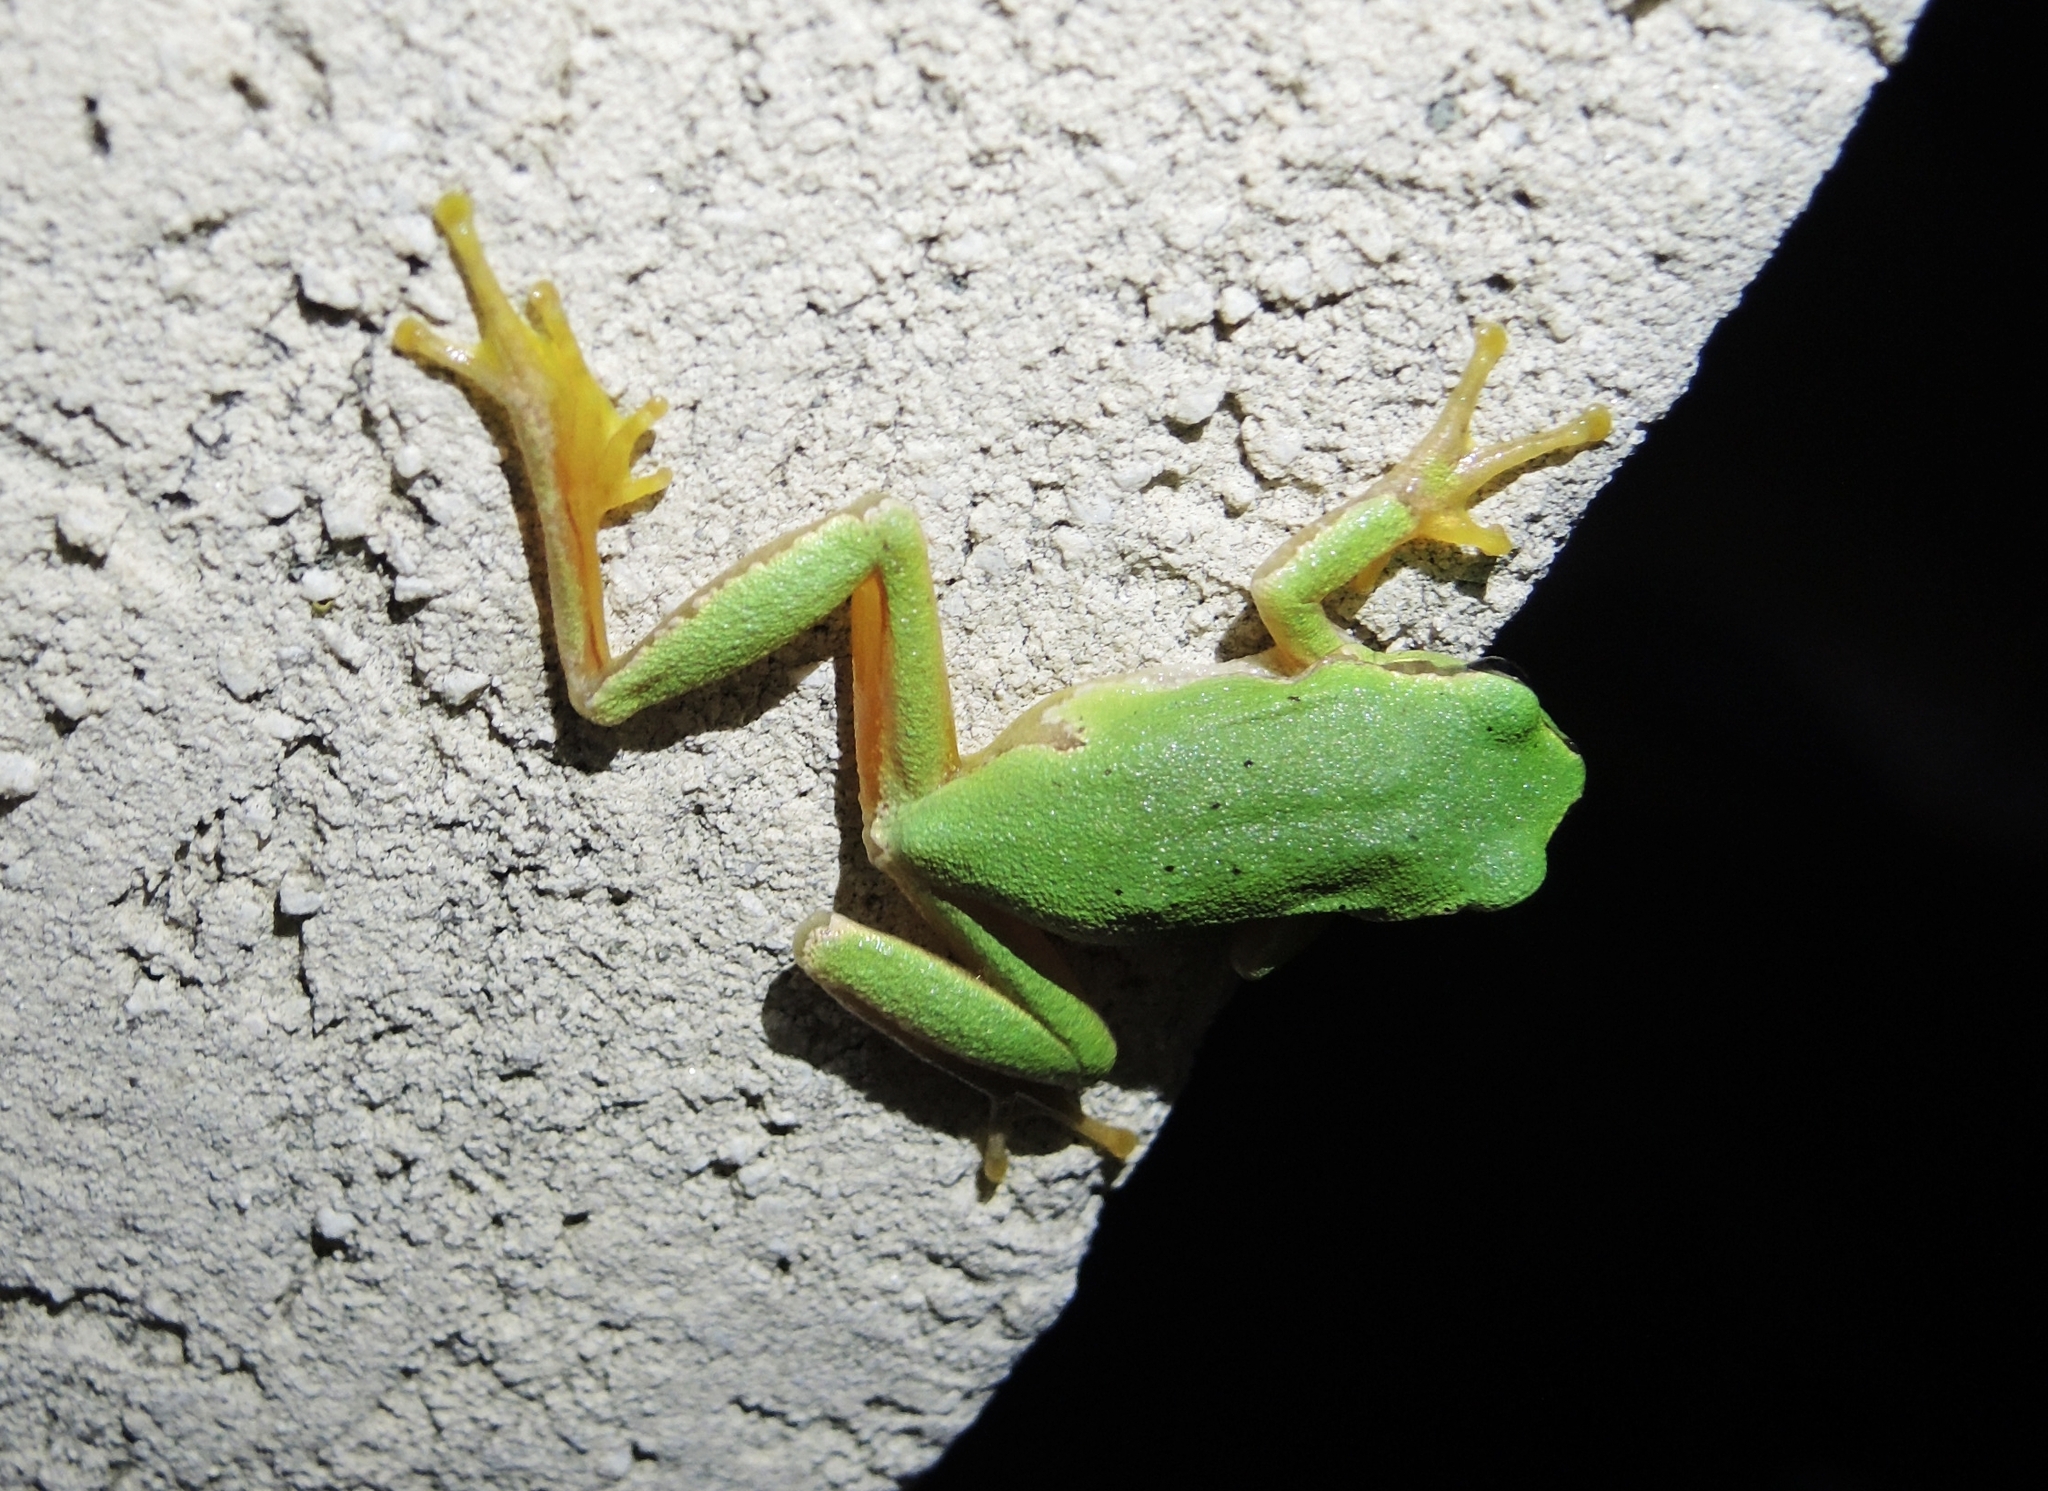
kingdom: Animalia
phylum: Chordata
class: Amphibia
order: Anura
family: Hylidae
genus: Hyla
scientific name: Hyla orientalis
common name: Caucasian treefrog
